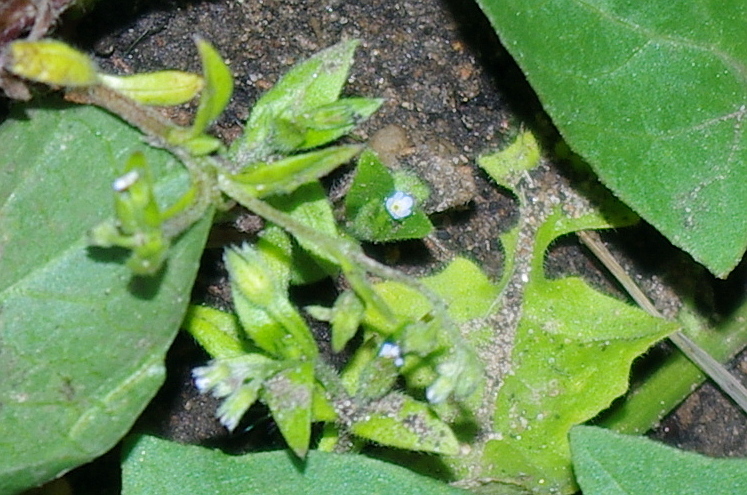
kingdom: Plantae
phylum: Tracheophyta
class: Magnoliopsida
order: Boraginales
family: Boraginaceae
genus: Myosotis
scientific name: Myosotis sparsiflora
